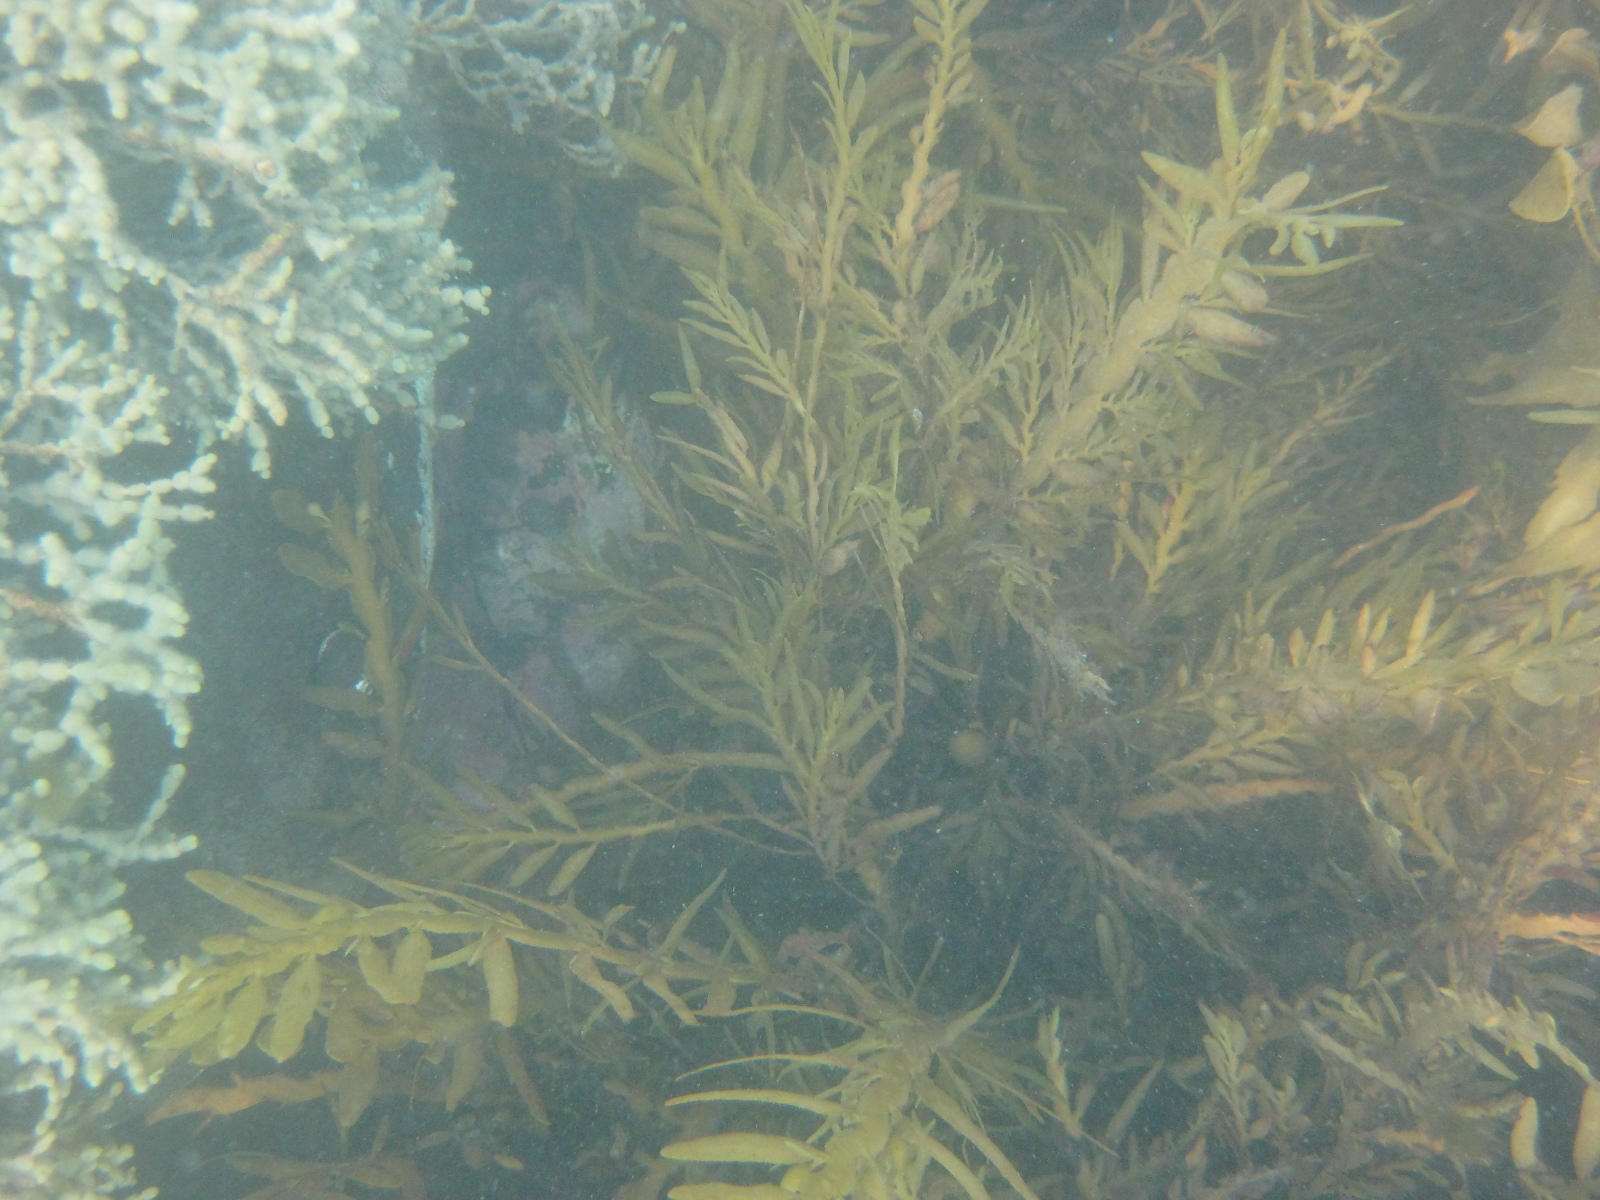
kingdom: Chromista
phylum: Ochrophyta
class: Phaeophyceae
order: Fucales
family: Sargassaceae
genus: Carpophyllum
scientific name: Carpophyllum maschalocarpum
